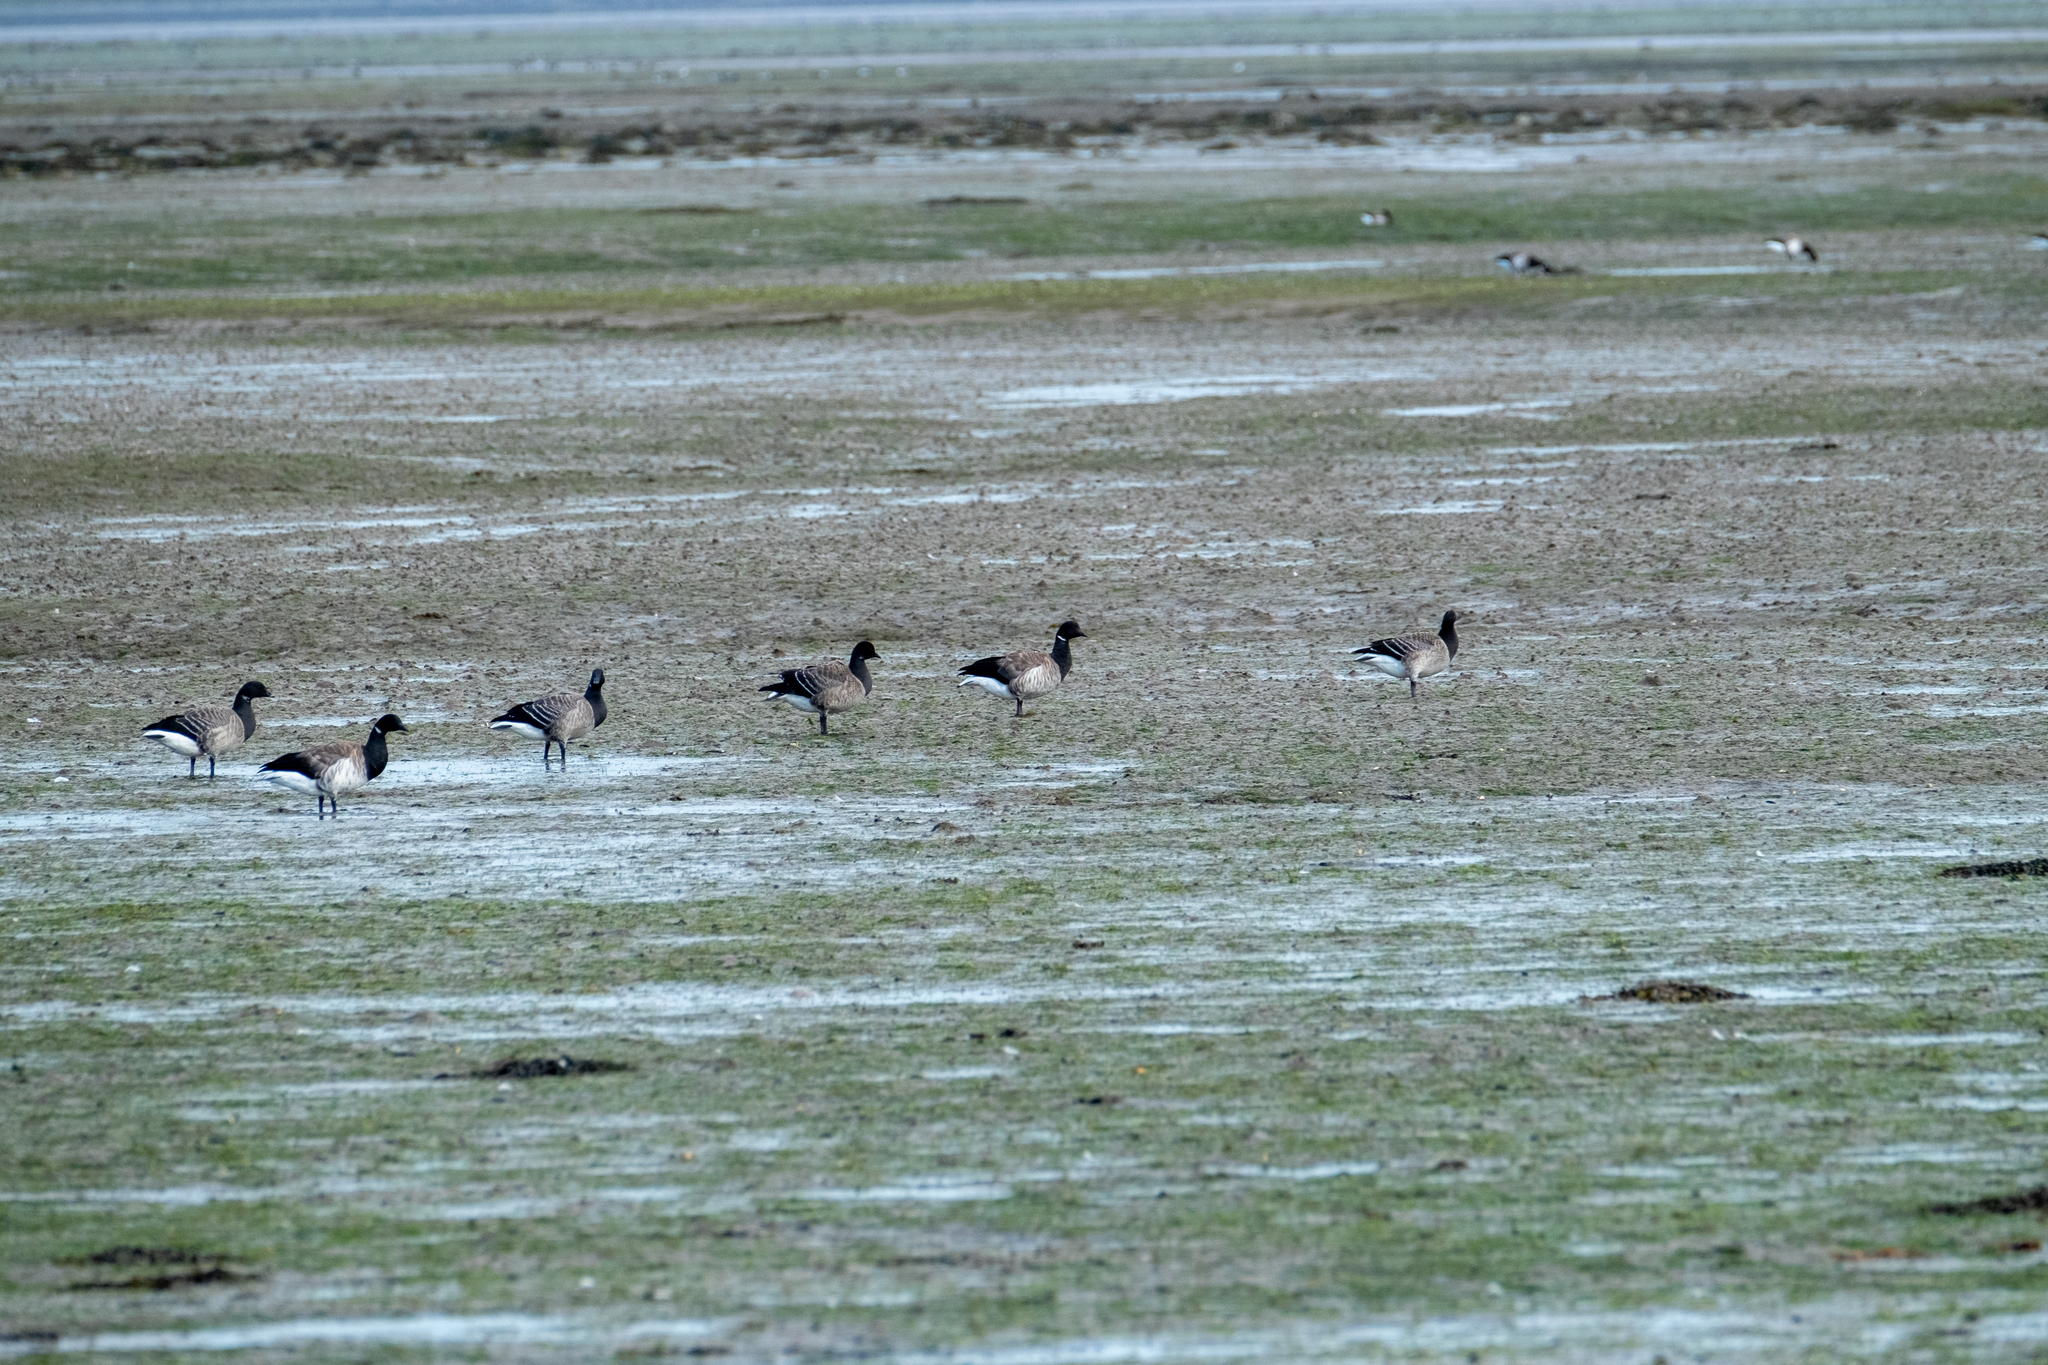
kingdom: Animalia
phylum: Chordata
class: Aves
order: Anseriformes
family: Anatidae
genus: Branta
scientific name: Branta bernicla
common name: Brant goose
